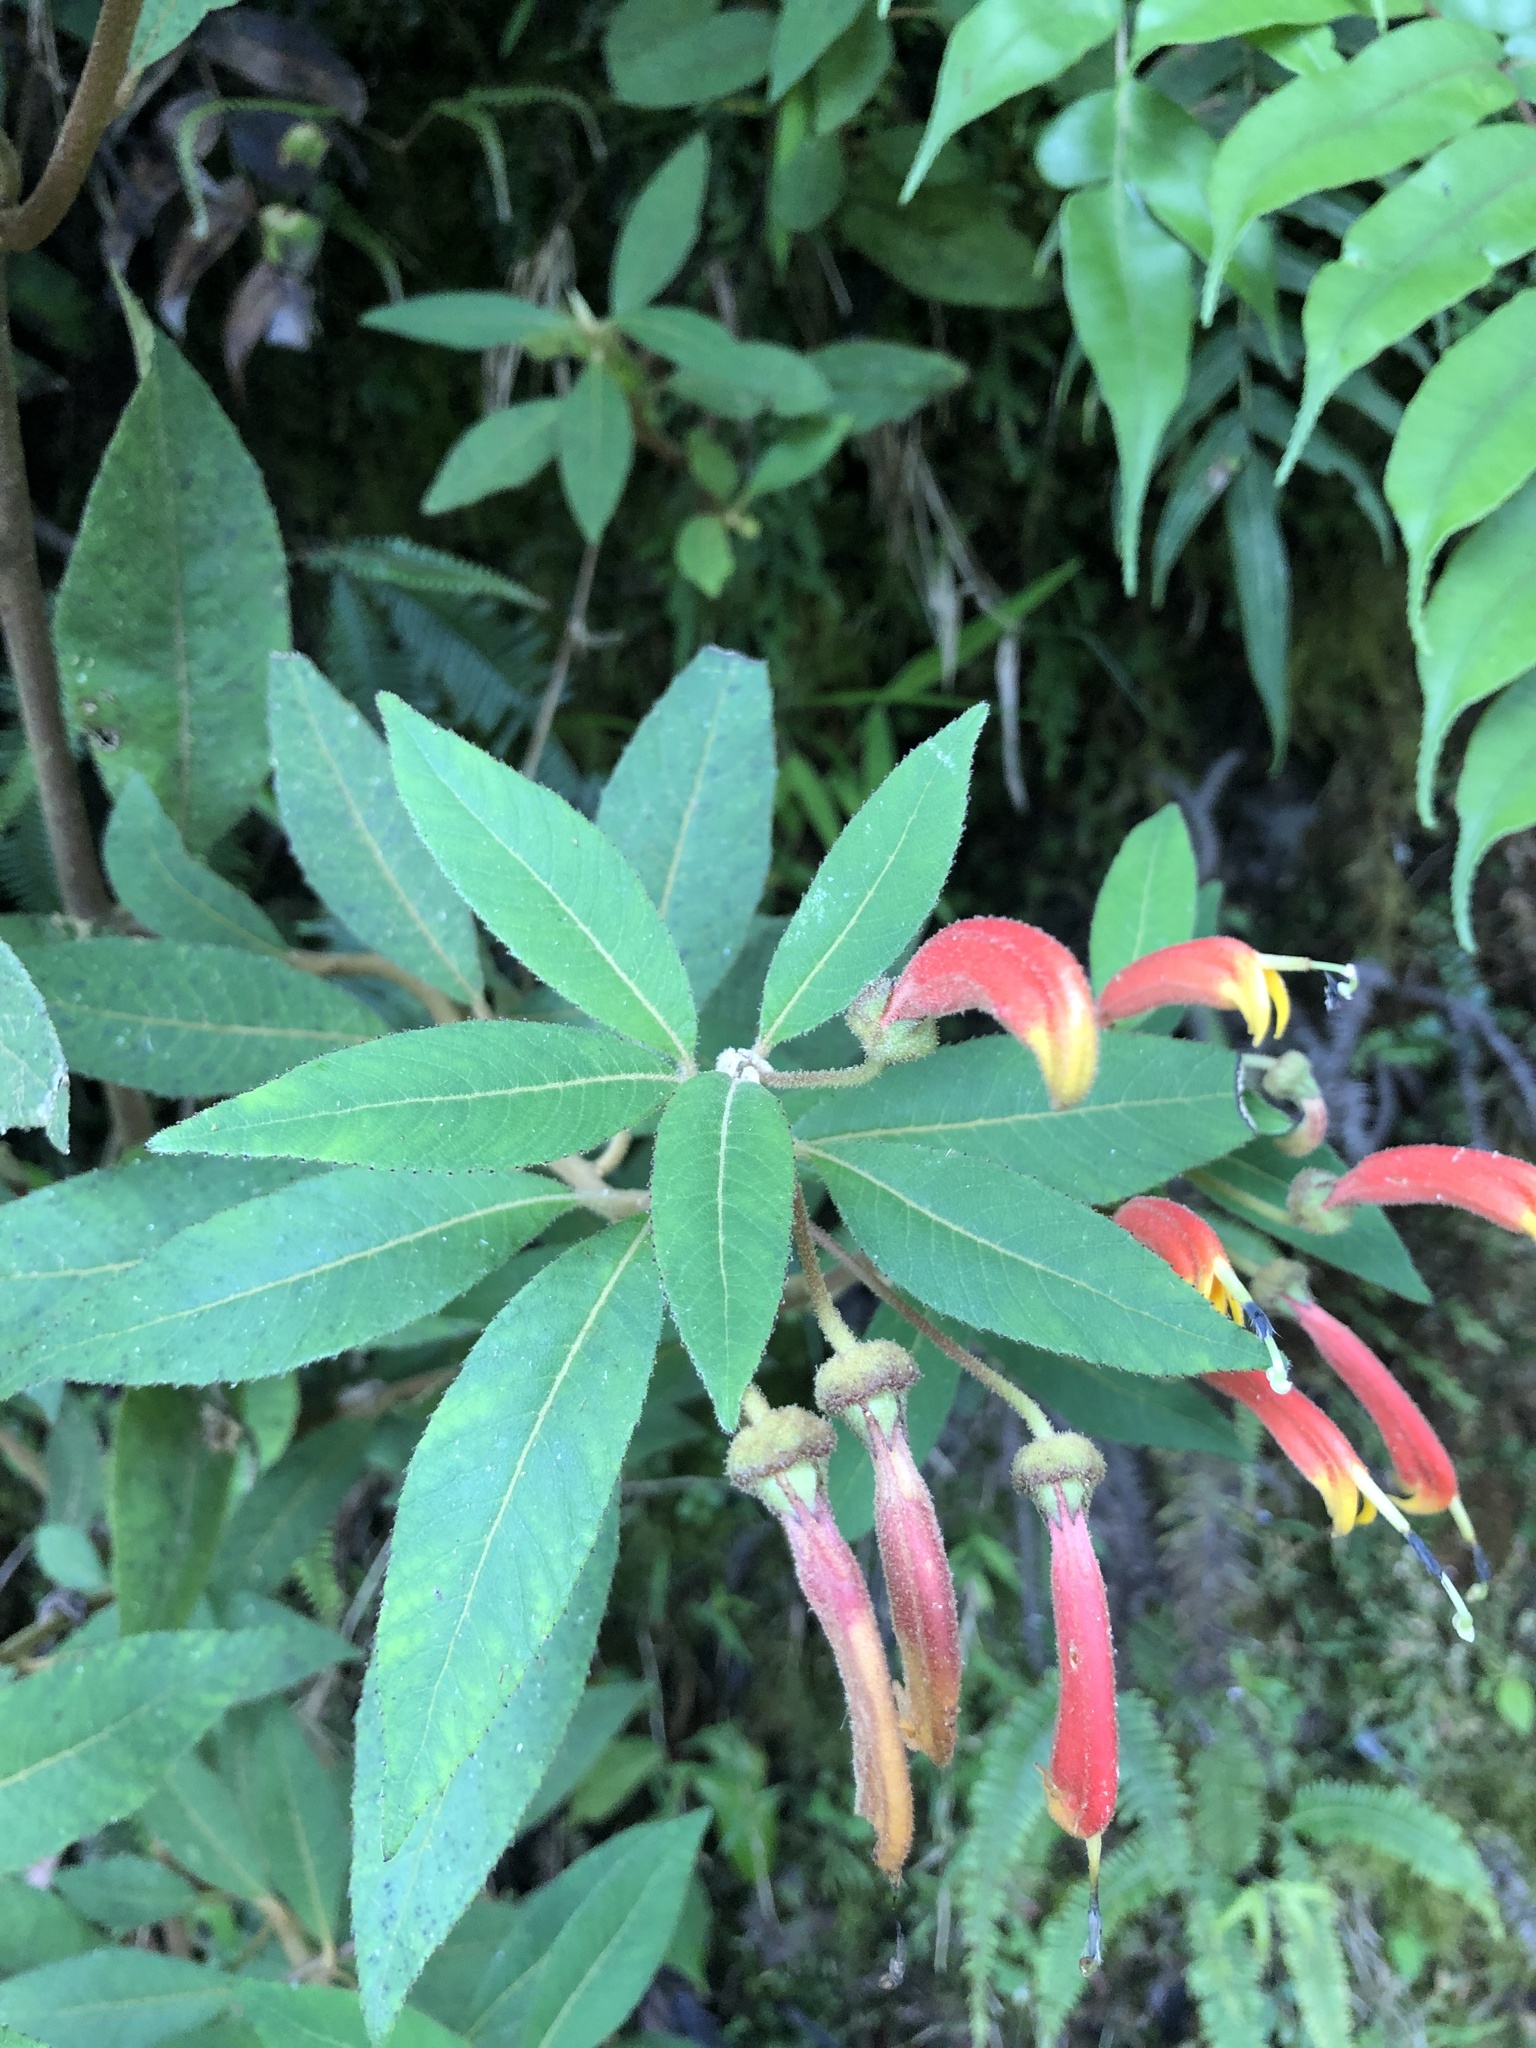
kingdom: Plantae
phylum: Tracheophyta
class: Magnoliopsida
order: Asterales
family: Campanulaceae
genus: Centropogon
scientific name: Centropogon ferrugineus
